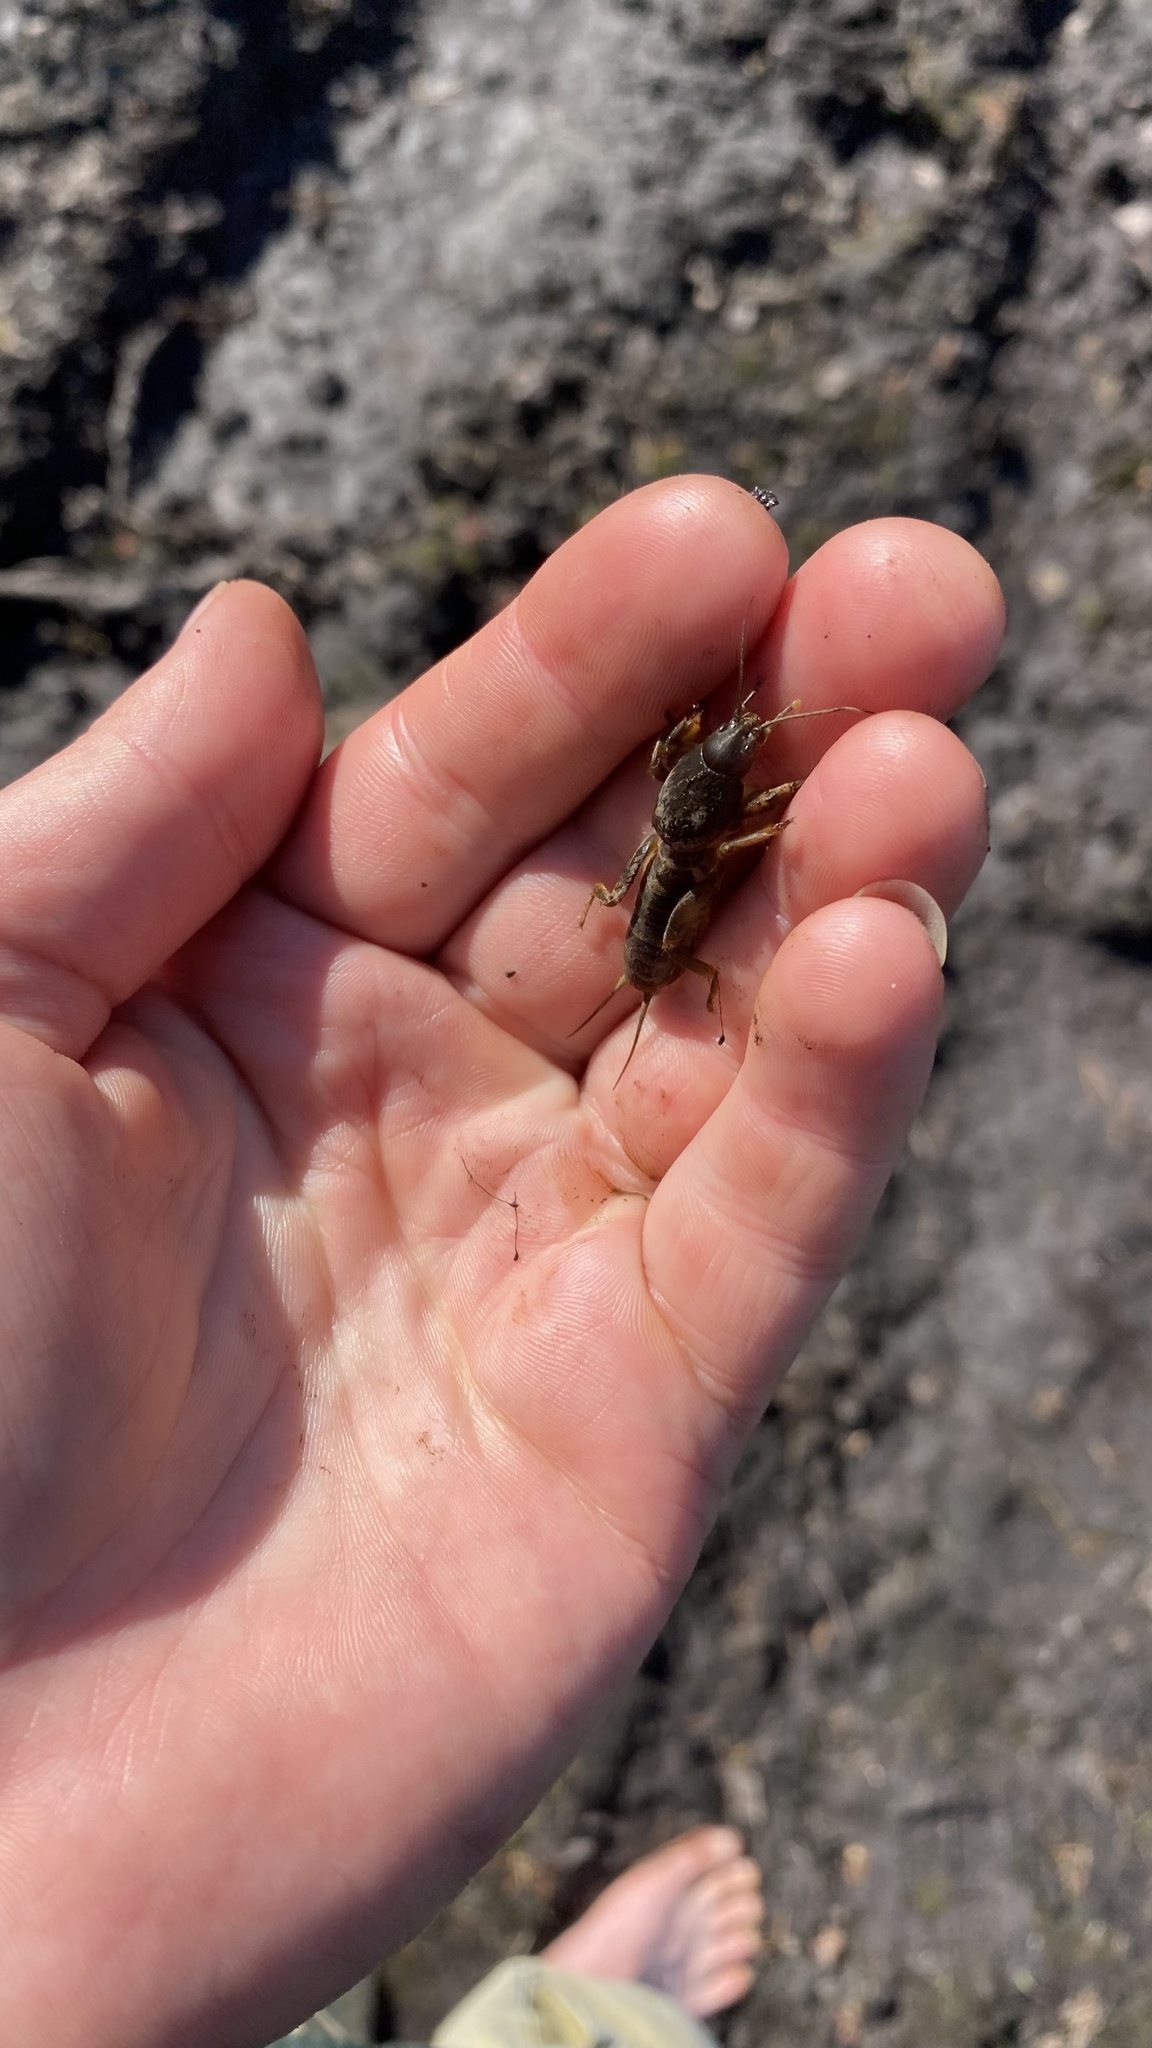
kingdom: Animalia
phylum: Arthropoda
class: Insecta
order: Orthoptera
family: Gryllotalpidae
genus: Gryllotalpa
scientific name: Gryllotalpa gryllotalpa
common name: European mole cricket
